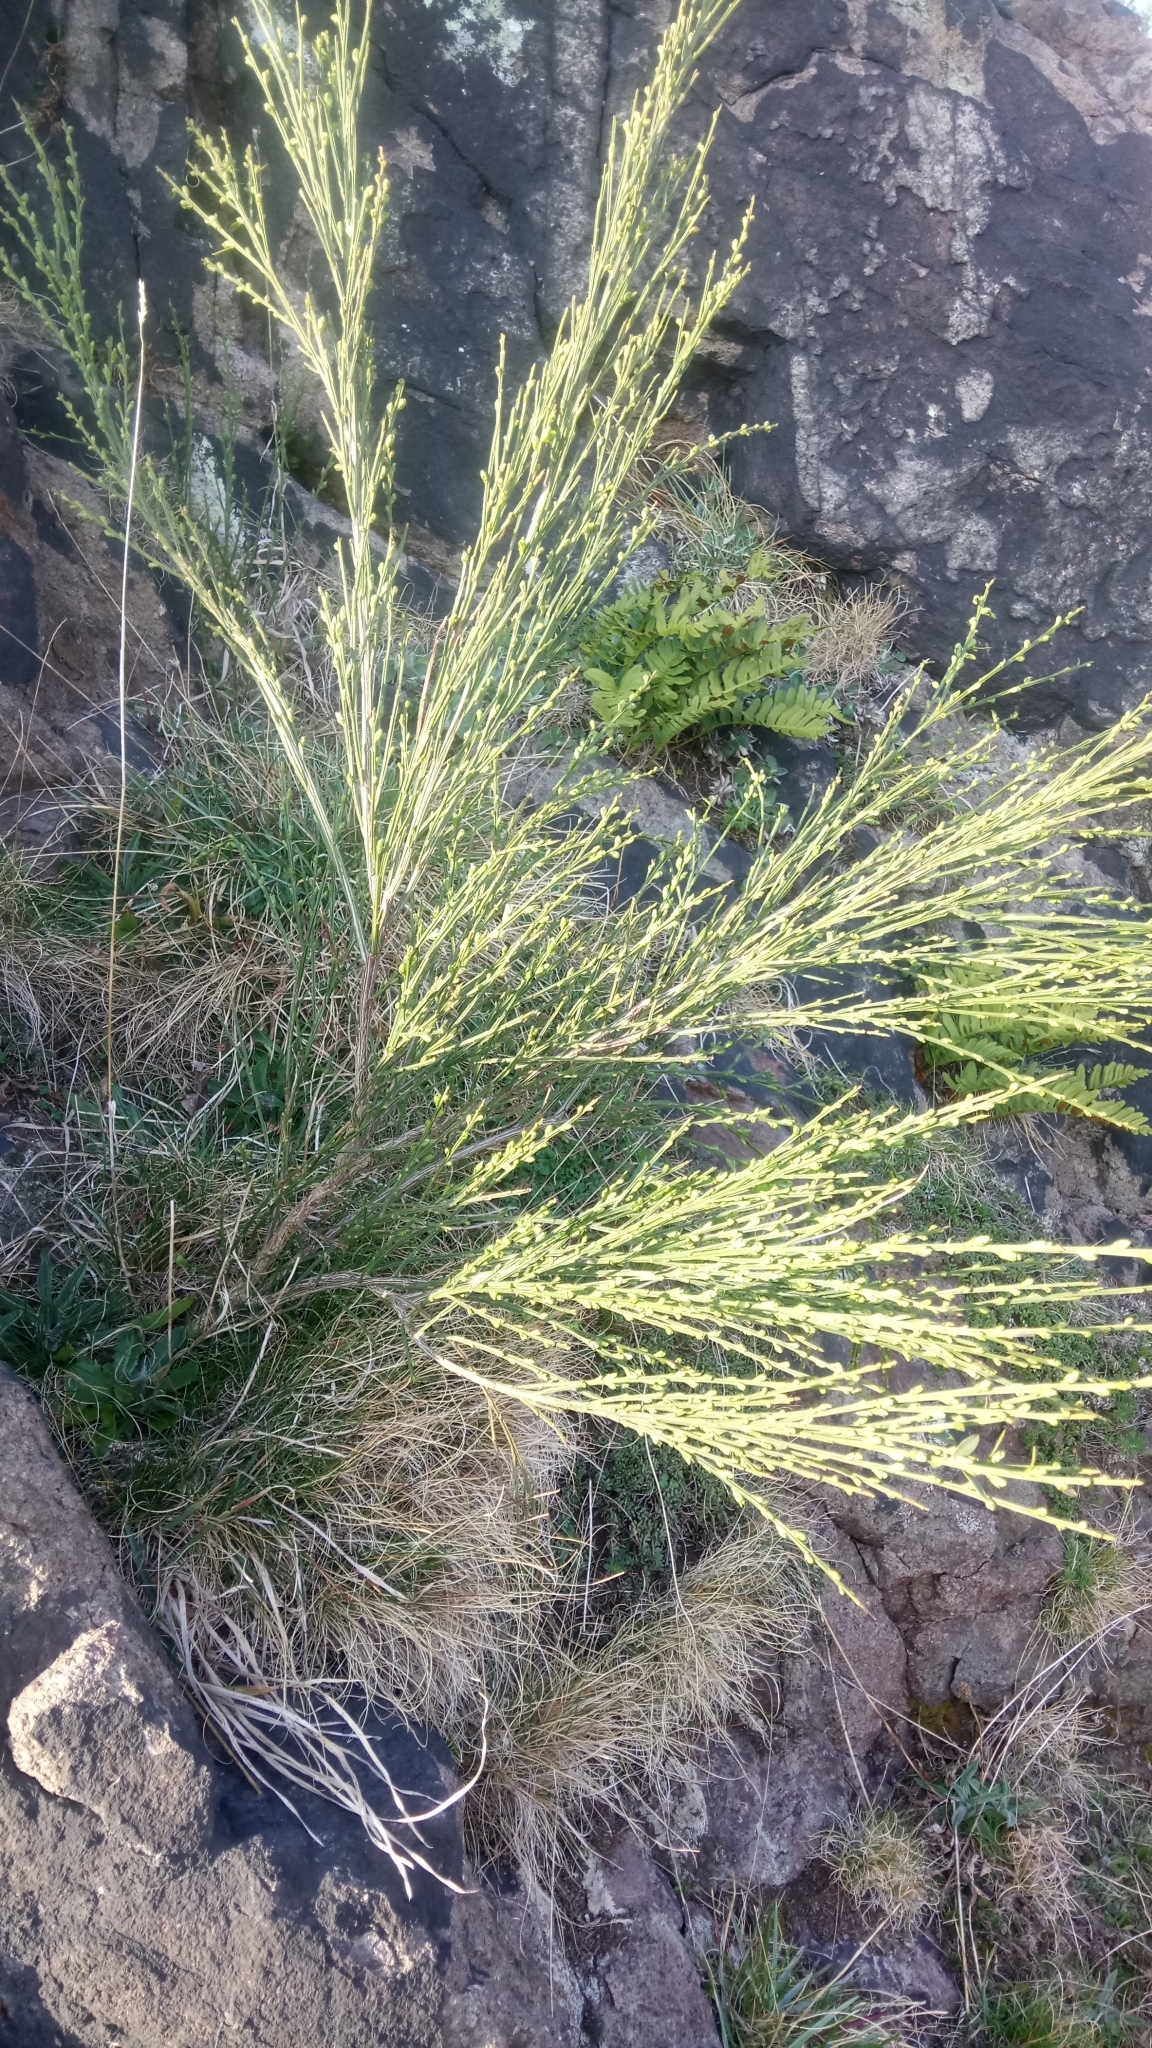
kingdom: Plantae
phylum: Tracheophyta
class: Magnoliopsida
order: Fabales
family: Fabaceae
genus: Cytisus
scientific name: Cytisus scoparius
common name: Scotch broom
